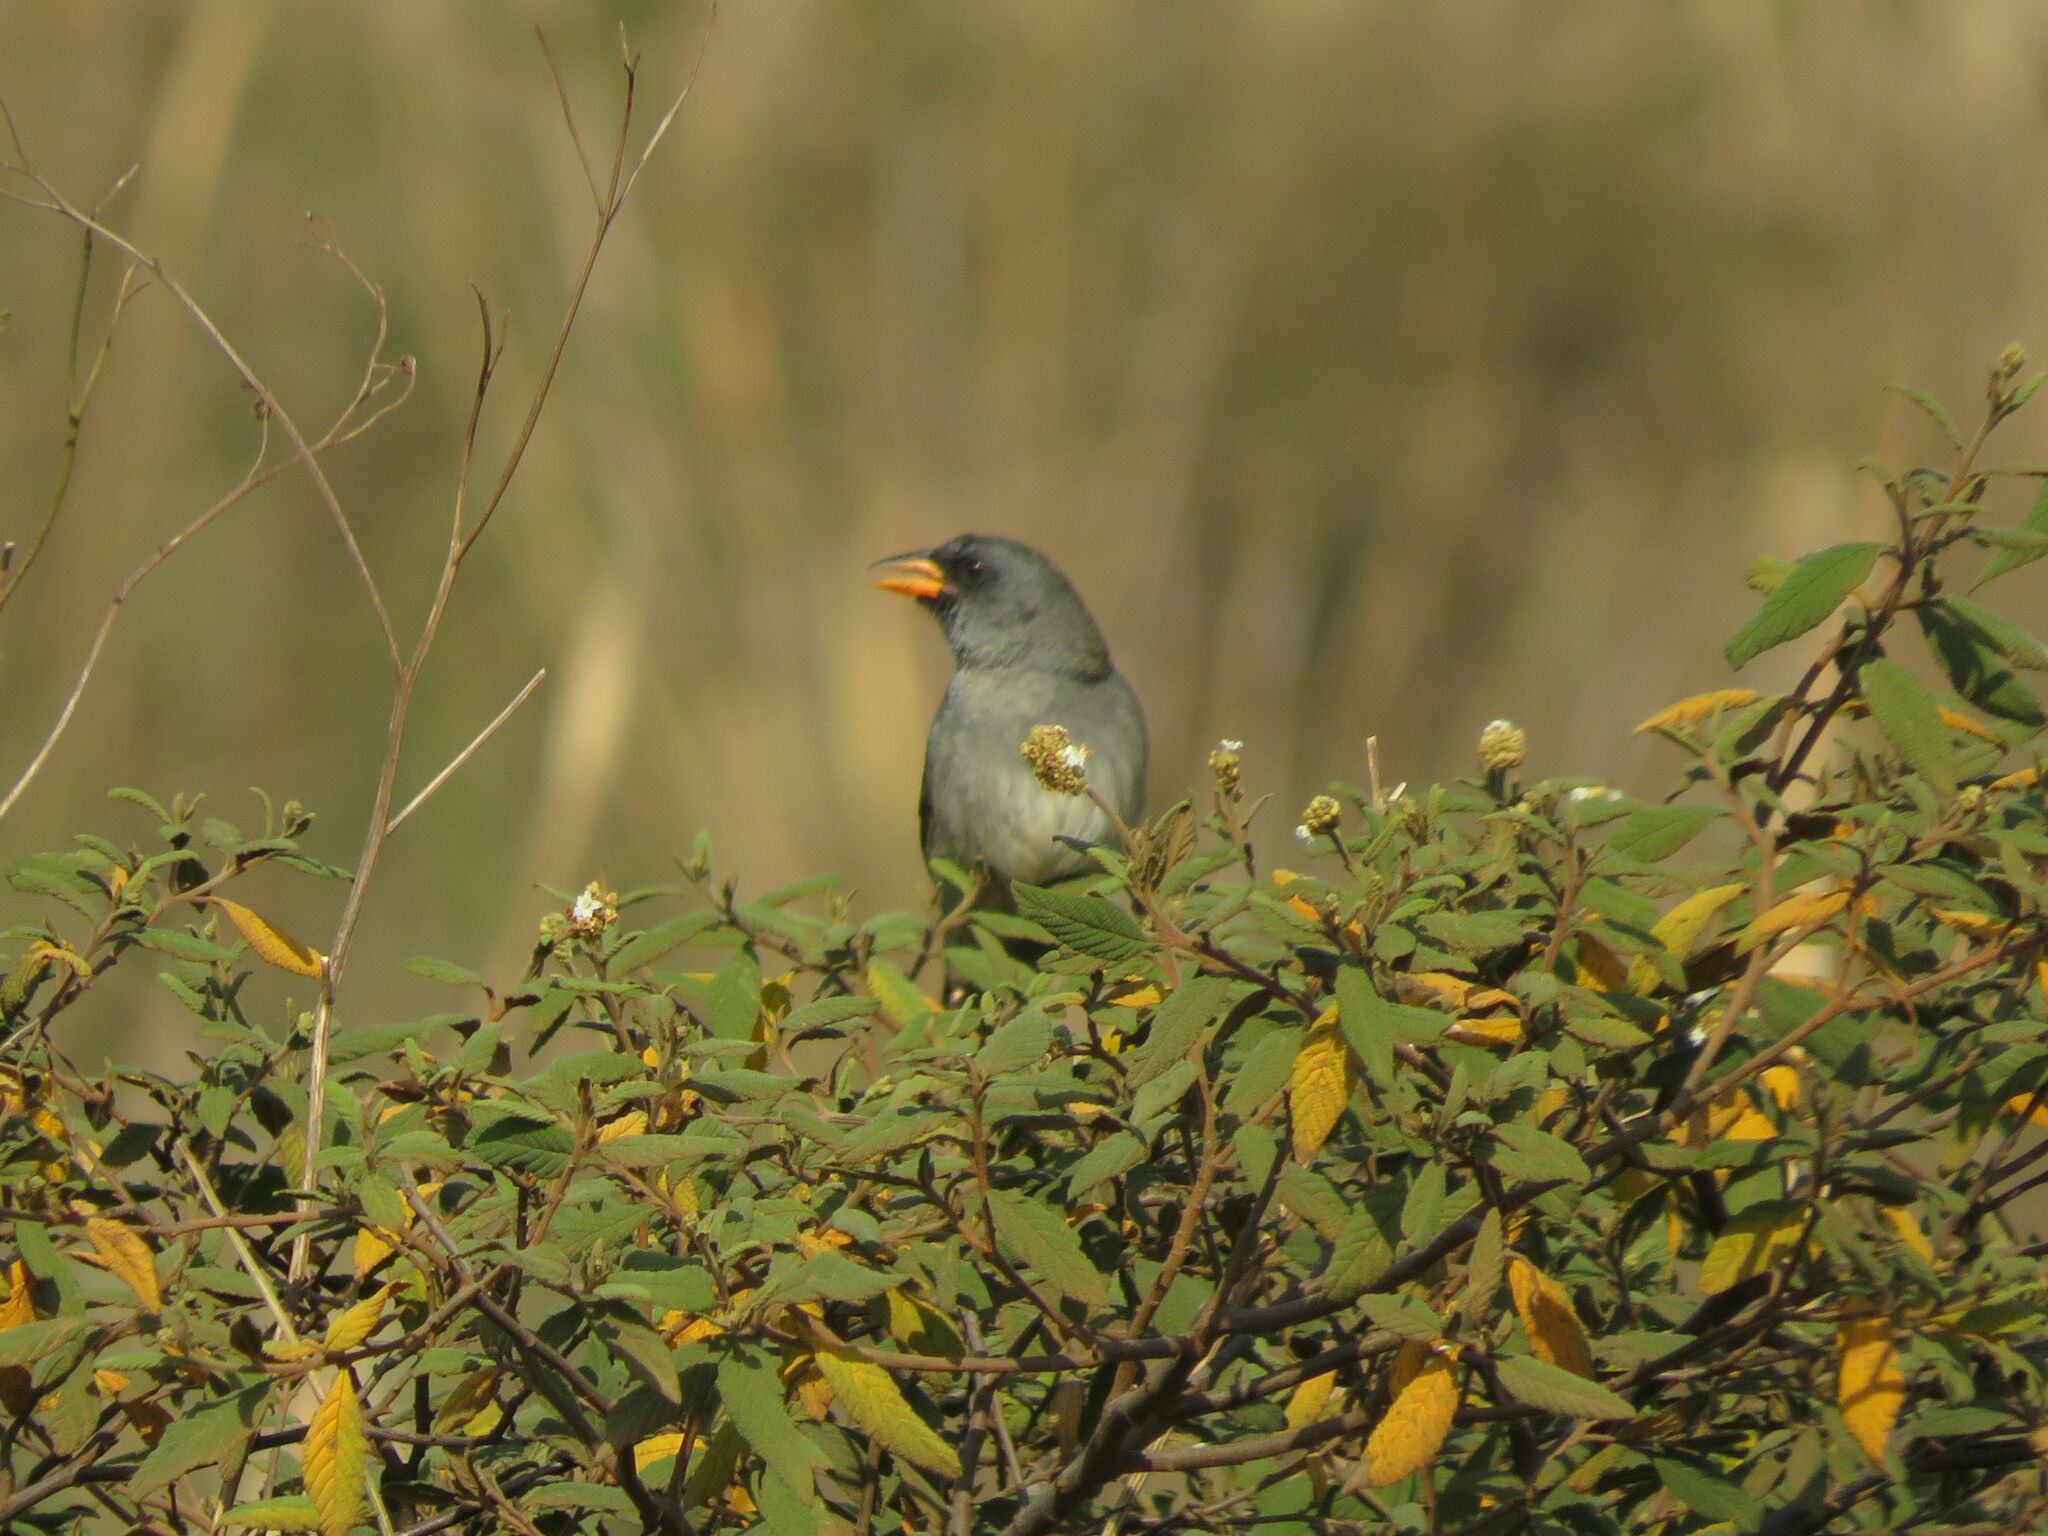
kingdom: Animalia
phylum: Chordata
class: Aves
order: Passeriformes
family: Thraupidae
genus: Embernagra
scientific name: Embernagra platensis
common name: Pampa finch
